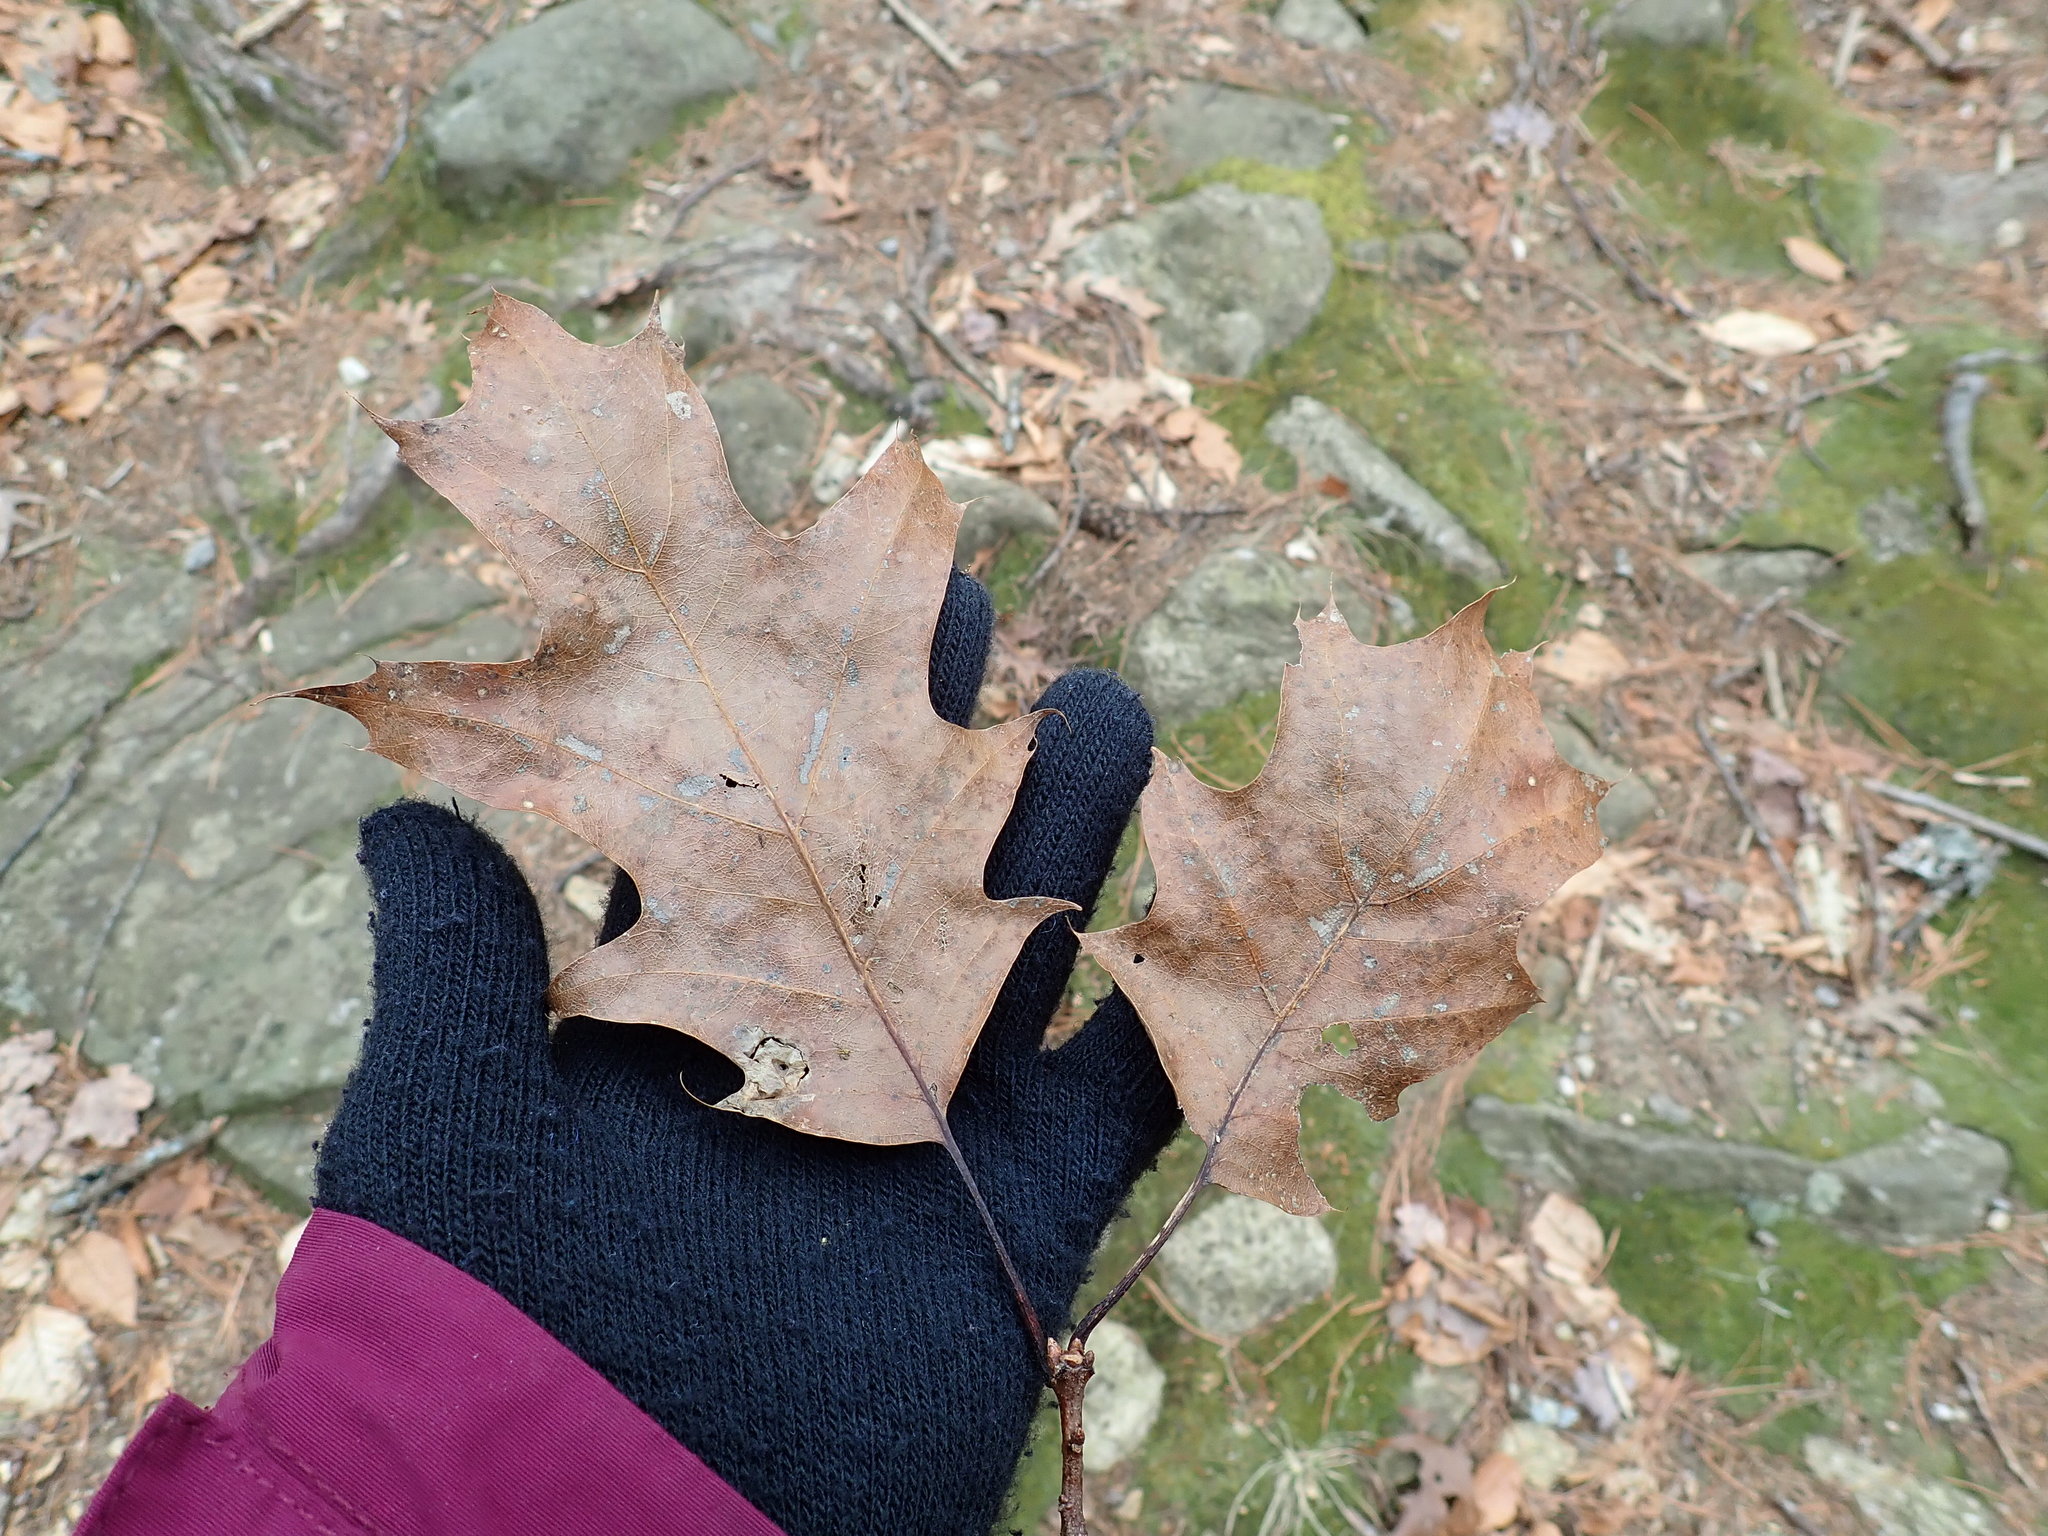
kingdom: Plantae
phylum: Tracheophyta
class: Magnoliopsida
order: Fagales
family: Fagaceae
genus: Quercus
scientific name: Quercus rubra
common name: Red oak
